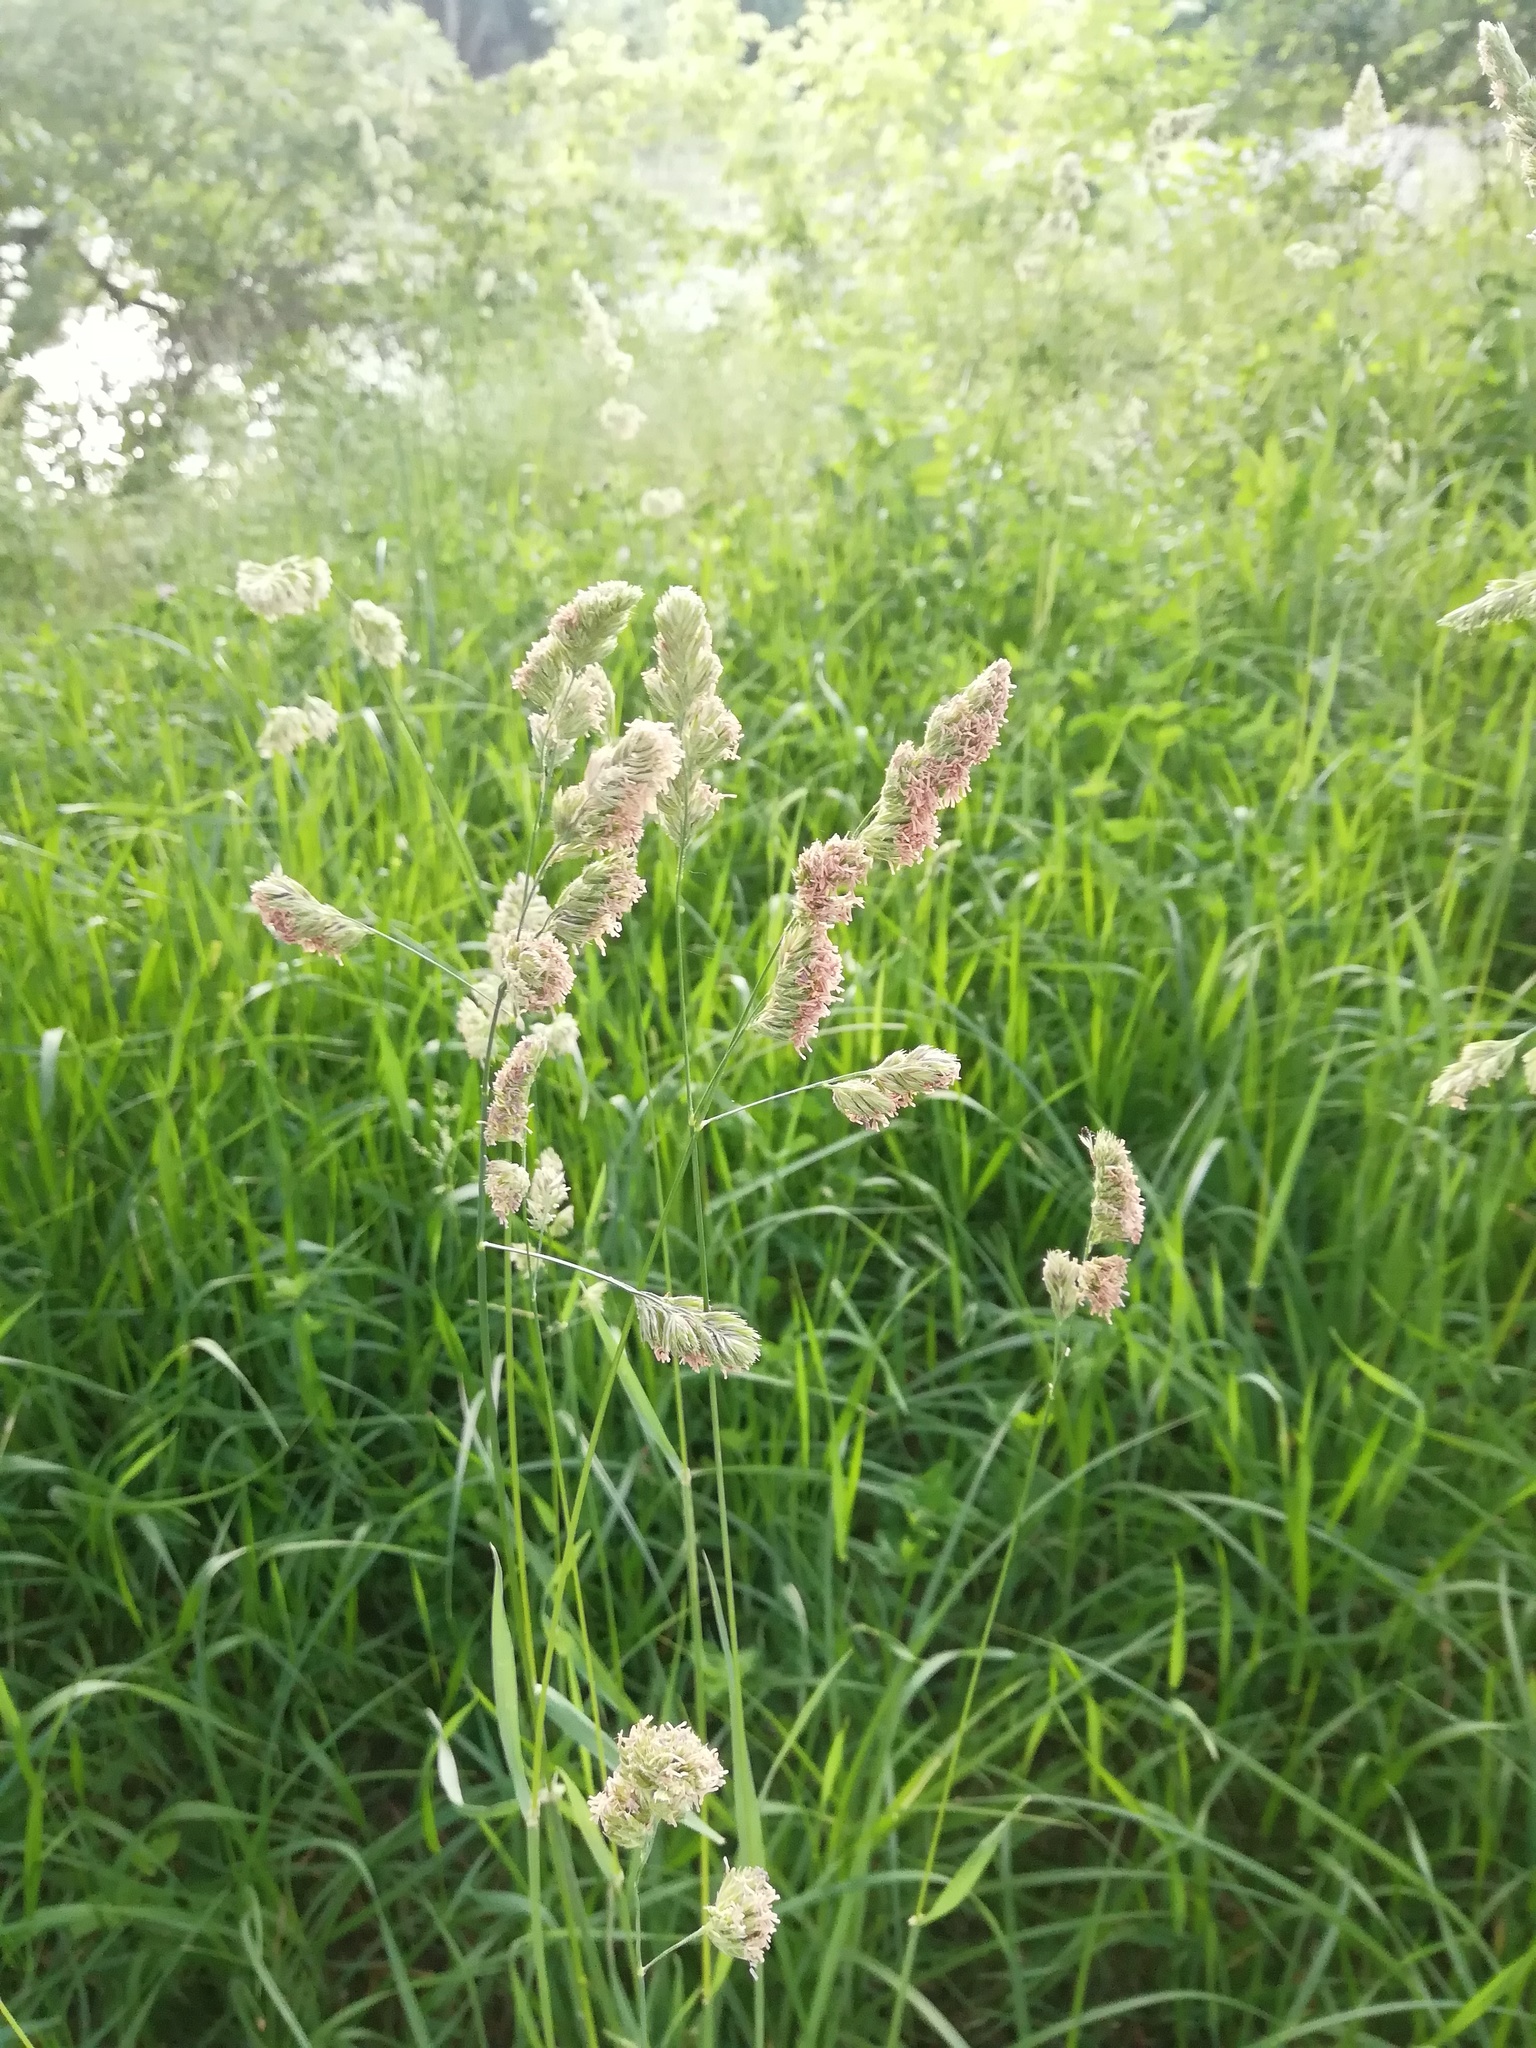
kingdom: Plantae
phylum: Tracheophyta
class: Liliopsida
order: Poales
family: Poaceae
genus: Dactylis
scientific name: Dactylis glomerata
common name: Orchardgrass
